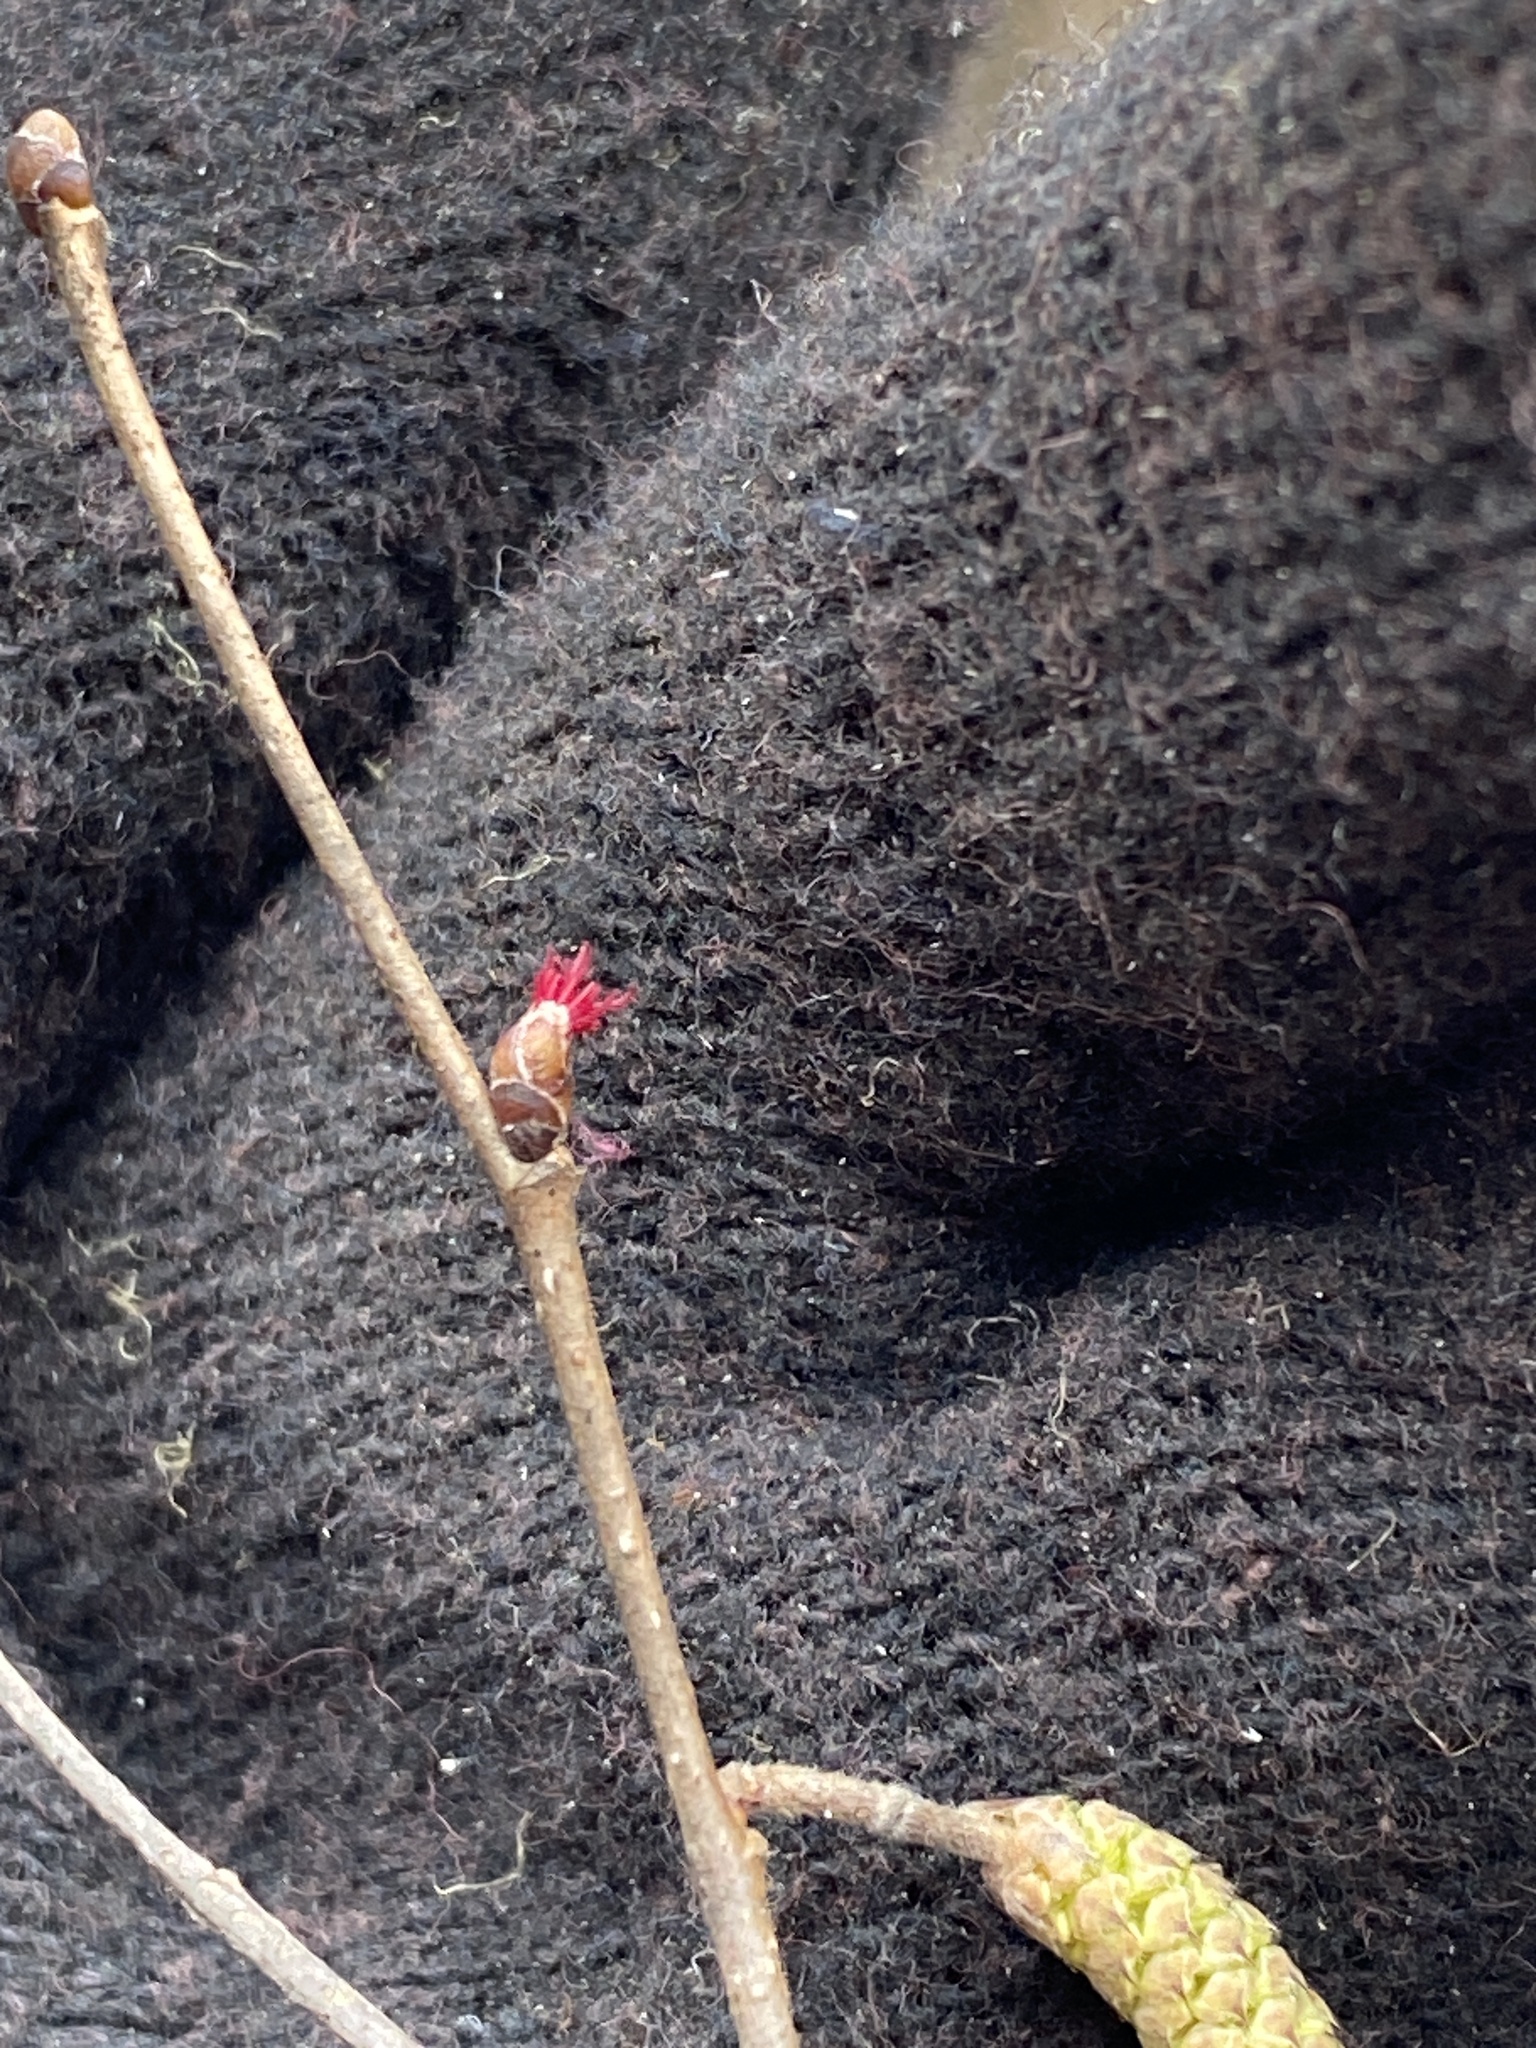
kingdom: Plantae
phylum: Tracheophyta
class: Magnoliopsida
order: Fagales
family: Betulaceae
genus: Corylus
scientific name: Corylus americana
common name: American hazel
